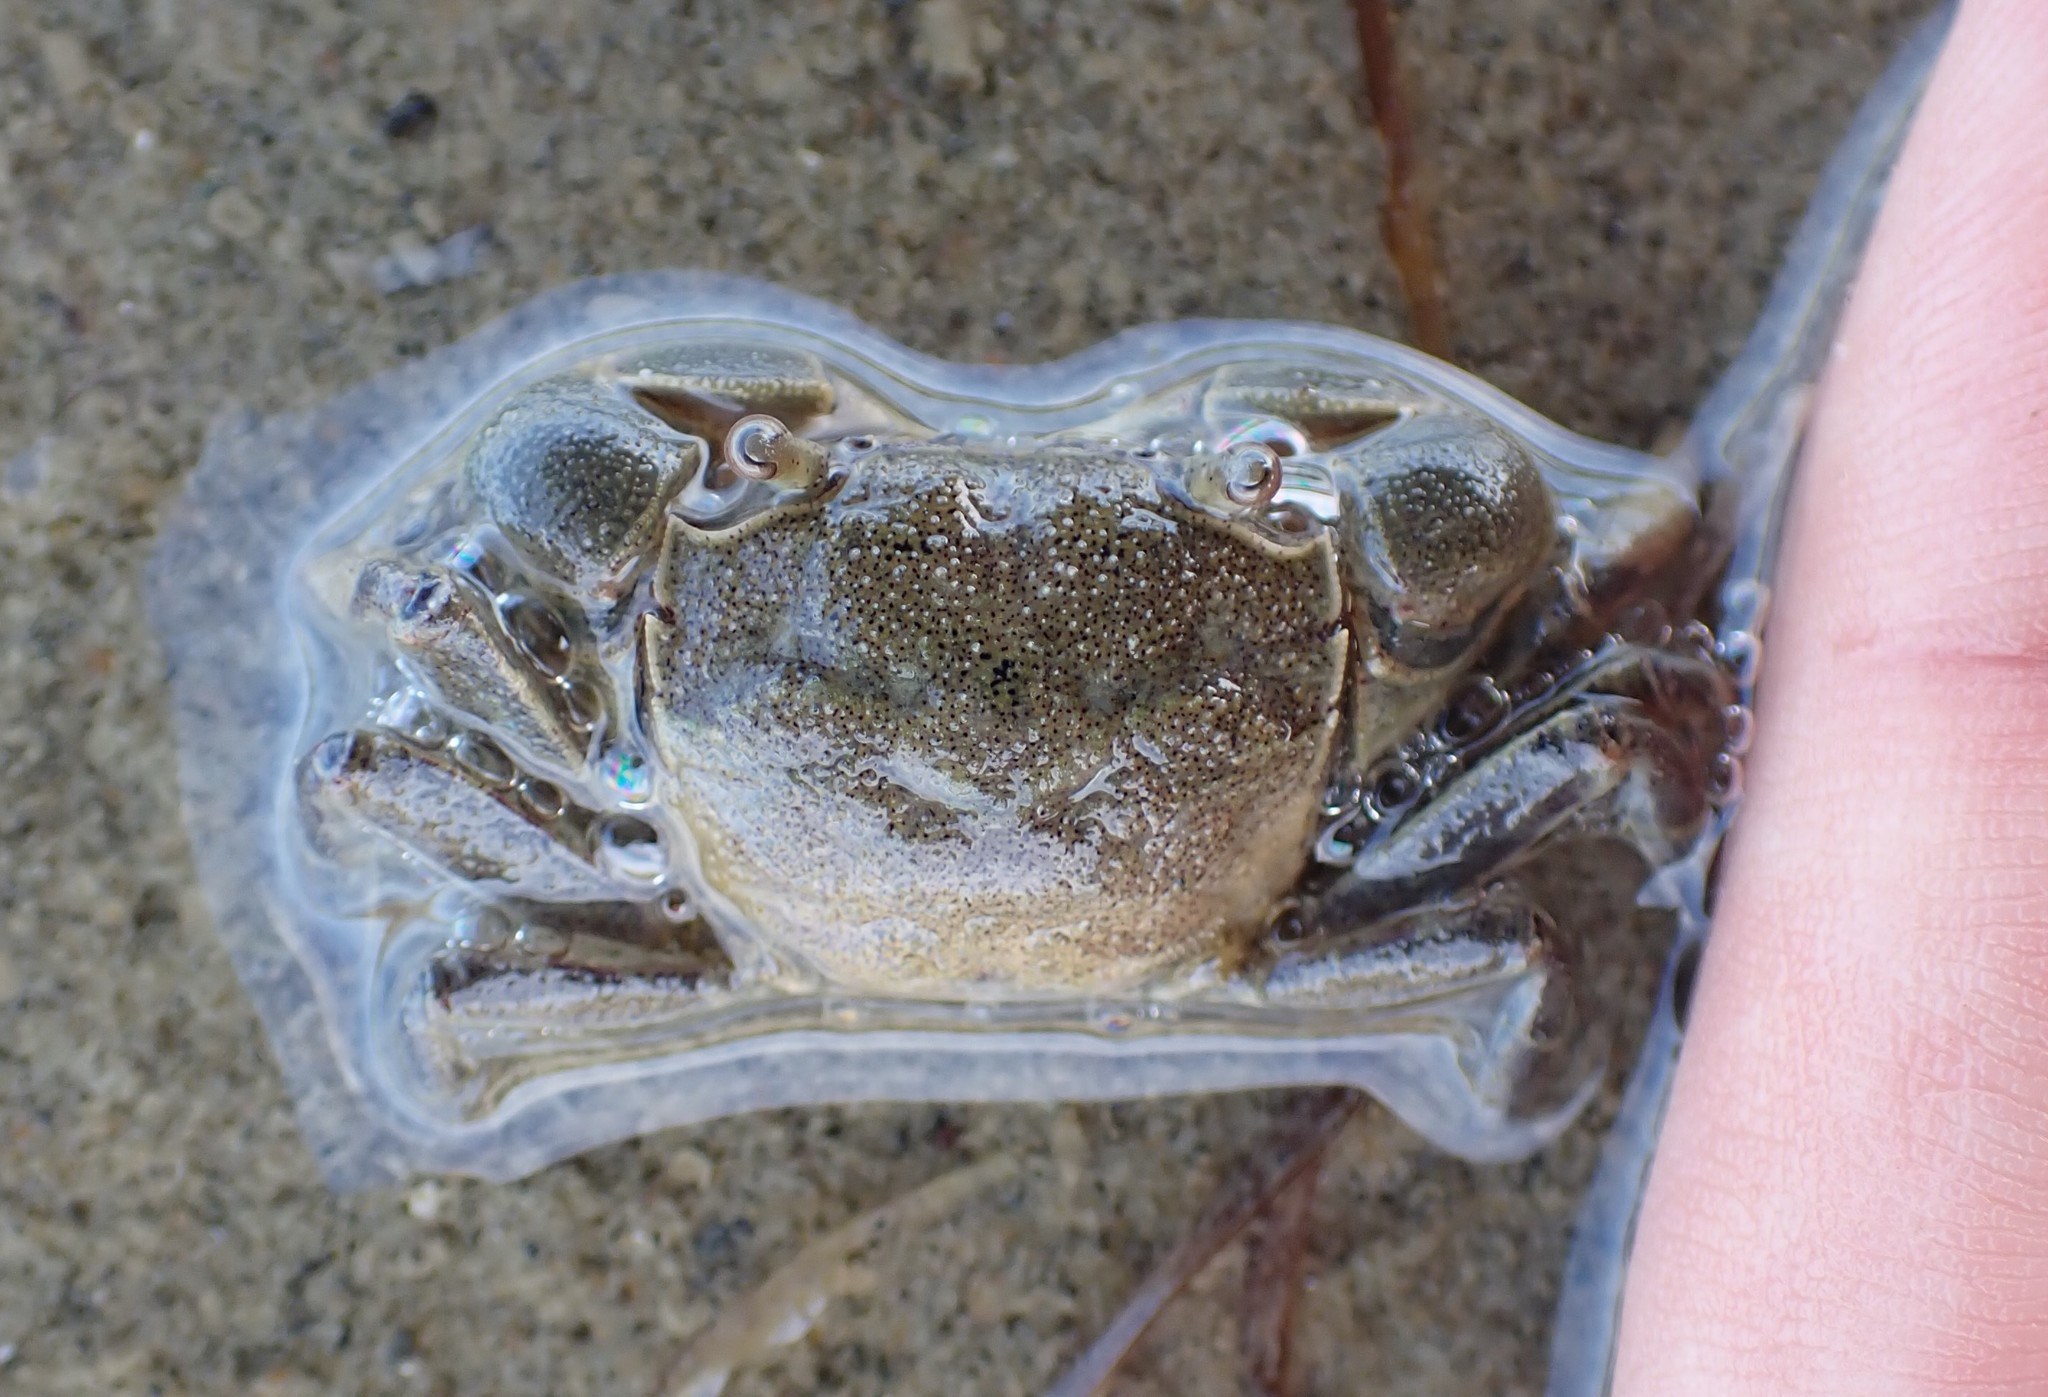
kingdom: Animalia
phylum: Arthropoda
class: Malacostraca
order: Decapoda
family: Varunidae
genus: Austrohelice
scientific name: Austrohelice crassa
